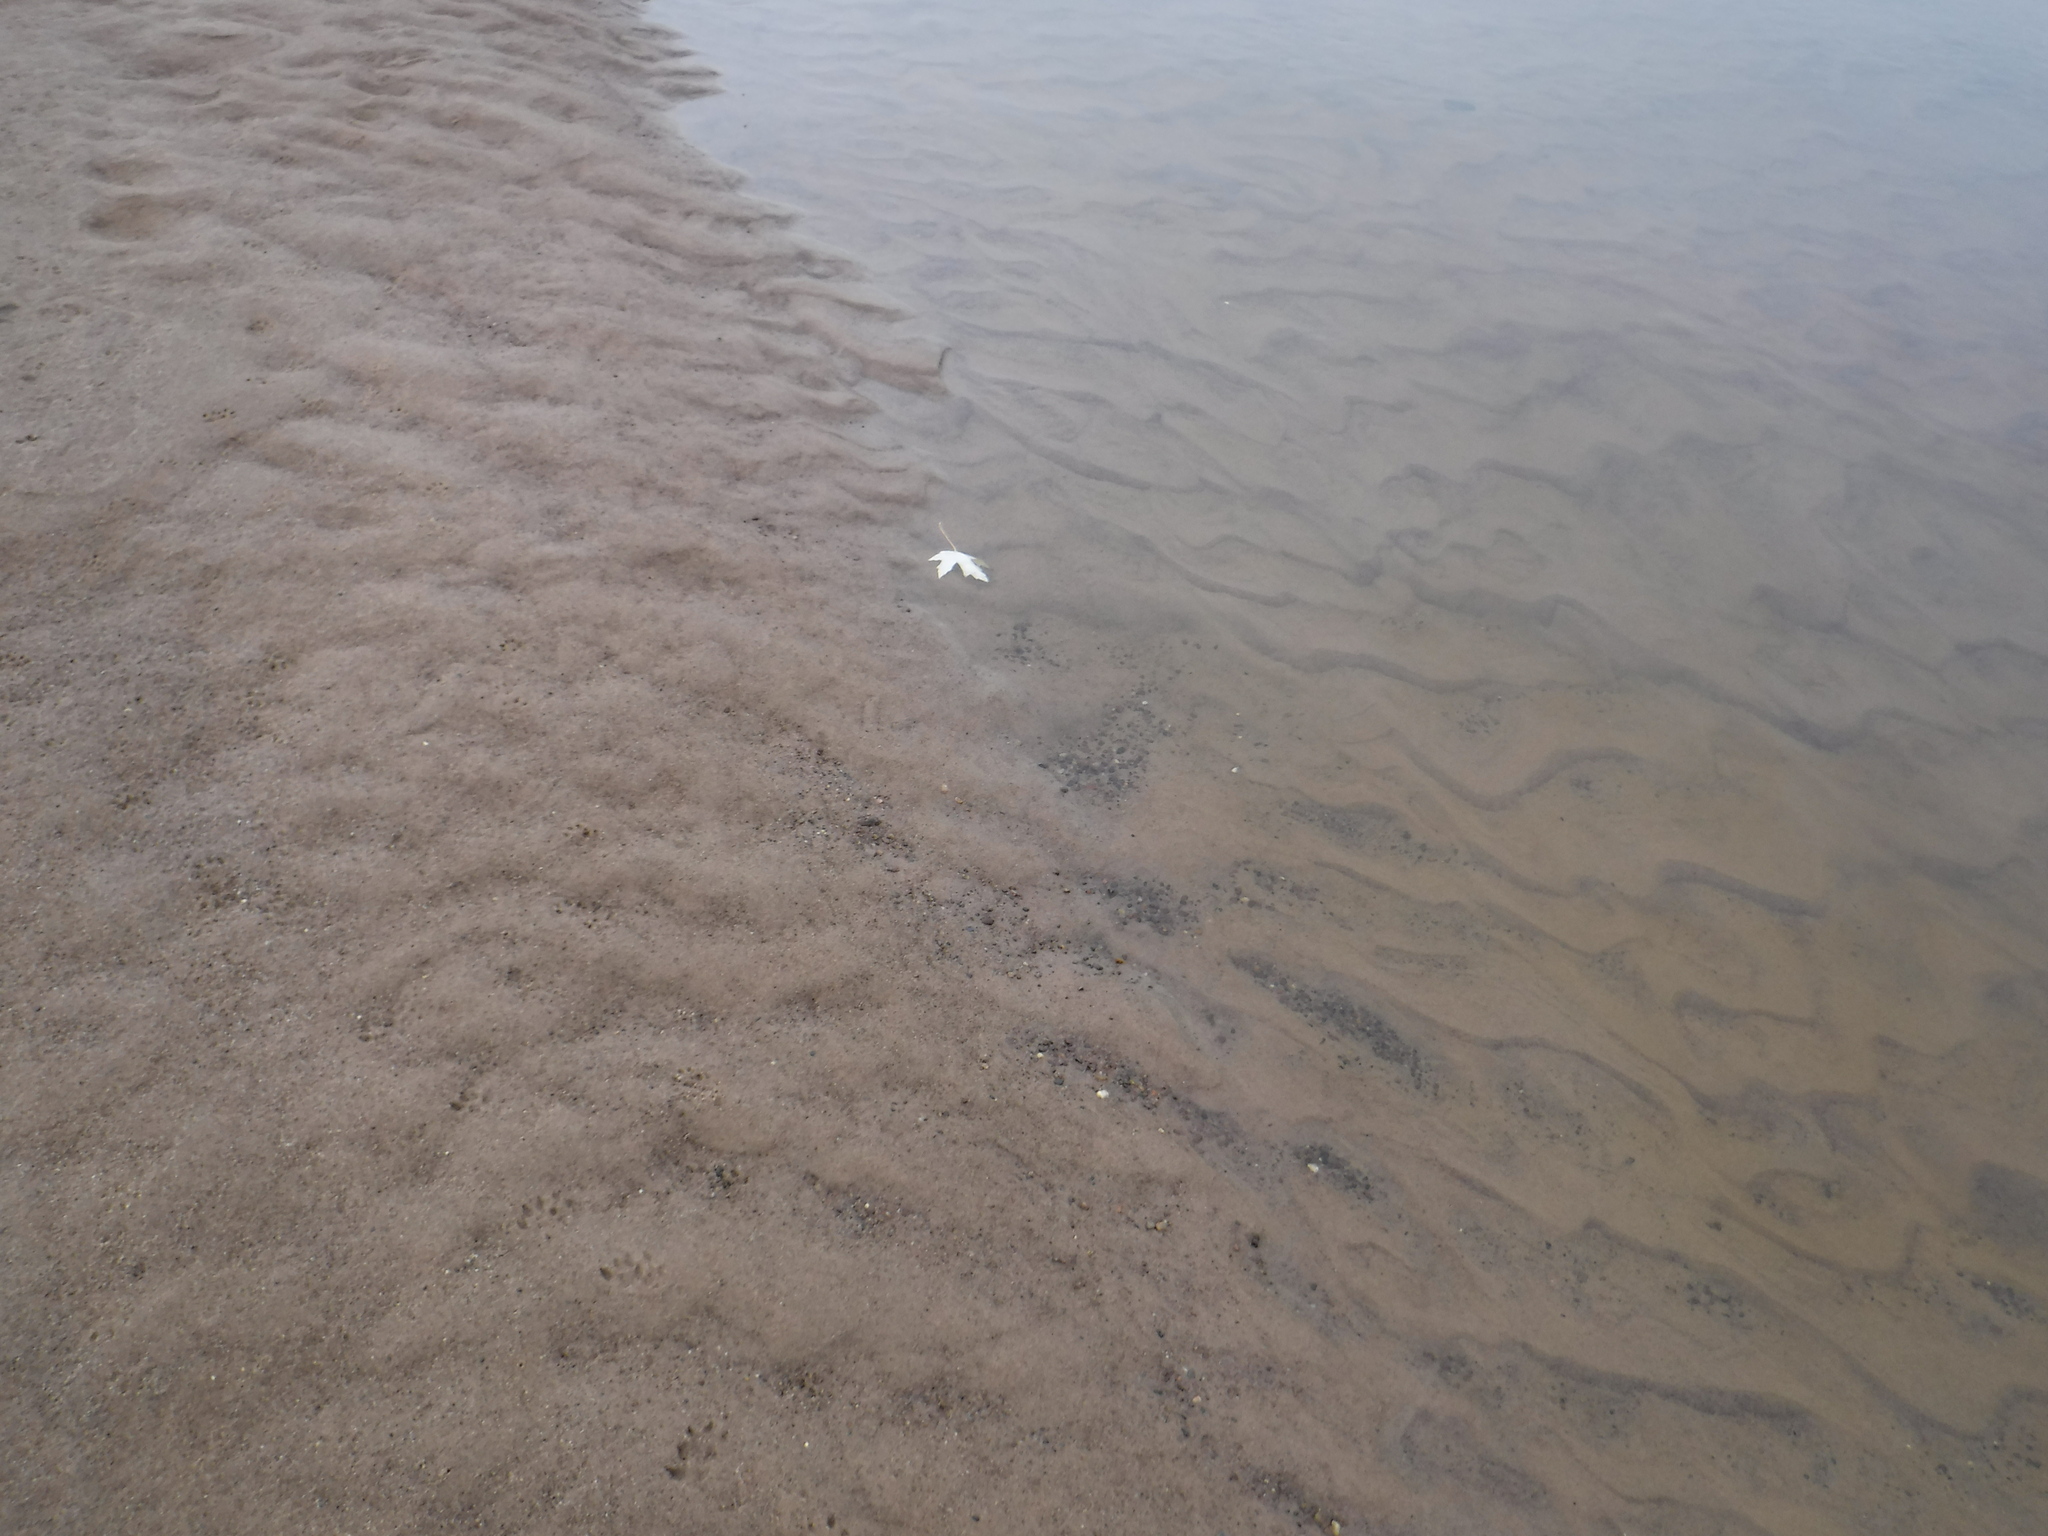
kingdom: Plantae
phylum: Tracheophyta
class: Magnoliopsida
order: Sapindales
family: Sapindaceae
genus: Acer
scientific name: Acer saccharinum
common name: Silver maple
